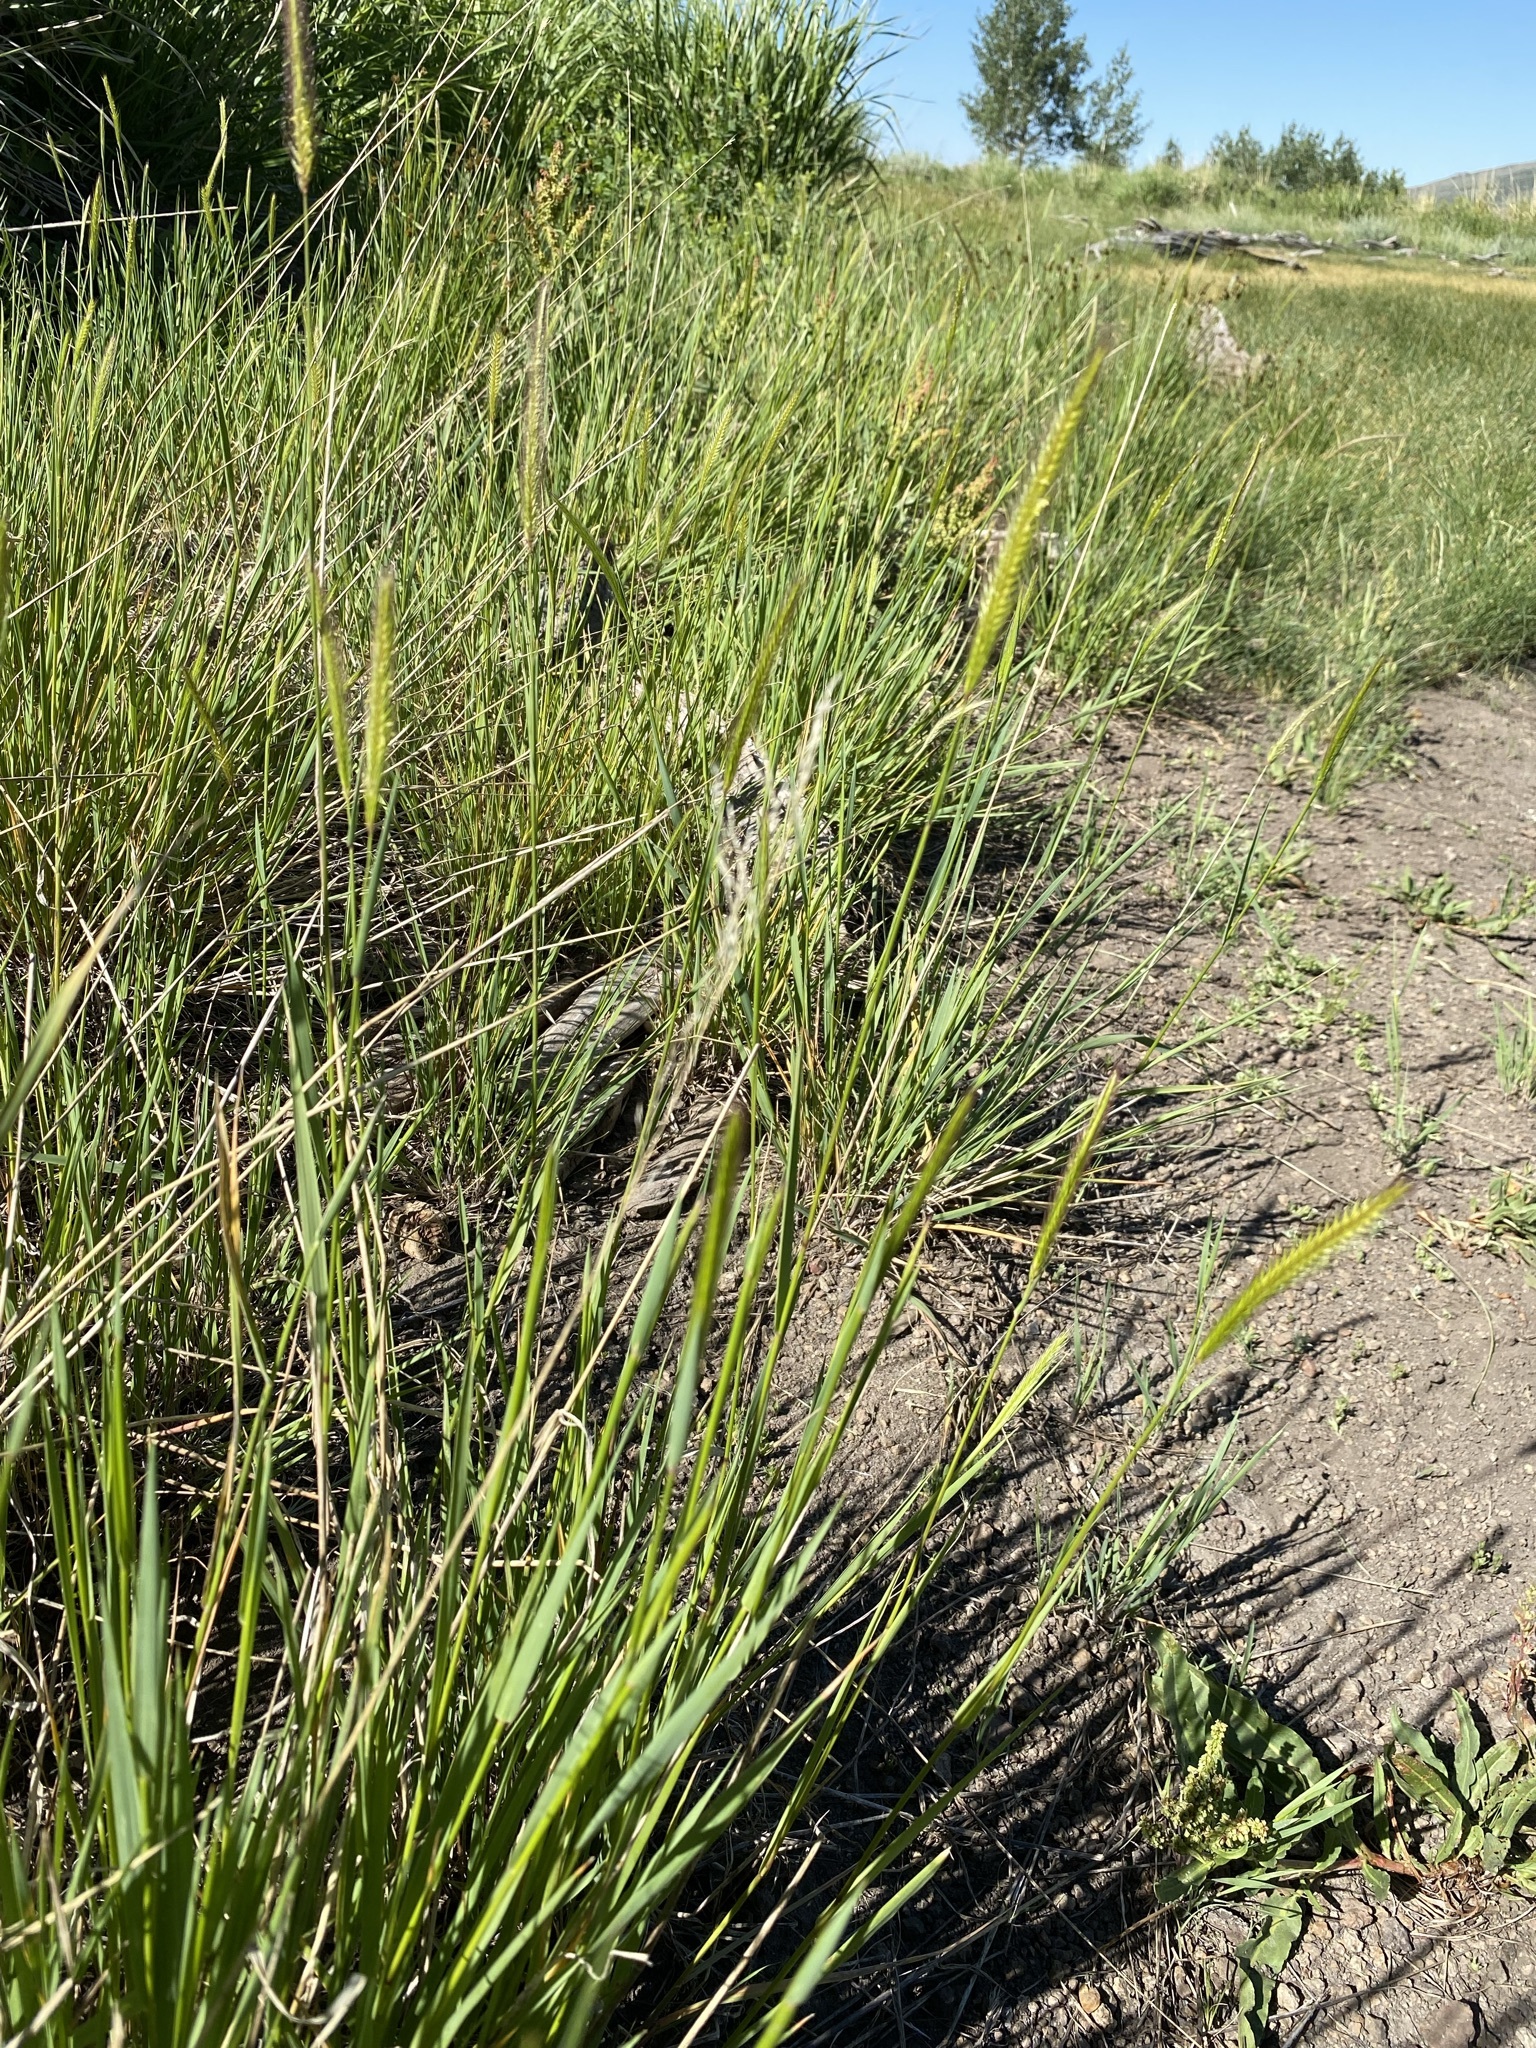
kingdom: Plantae
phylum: Tracheophyta
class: Liliopsida
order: Poales
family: Poaceae
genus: Hordeum
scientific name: Hordeum brachyantherum
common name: Meadow barley
